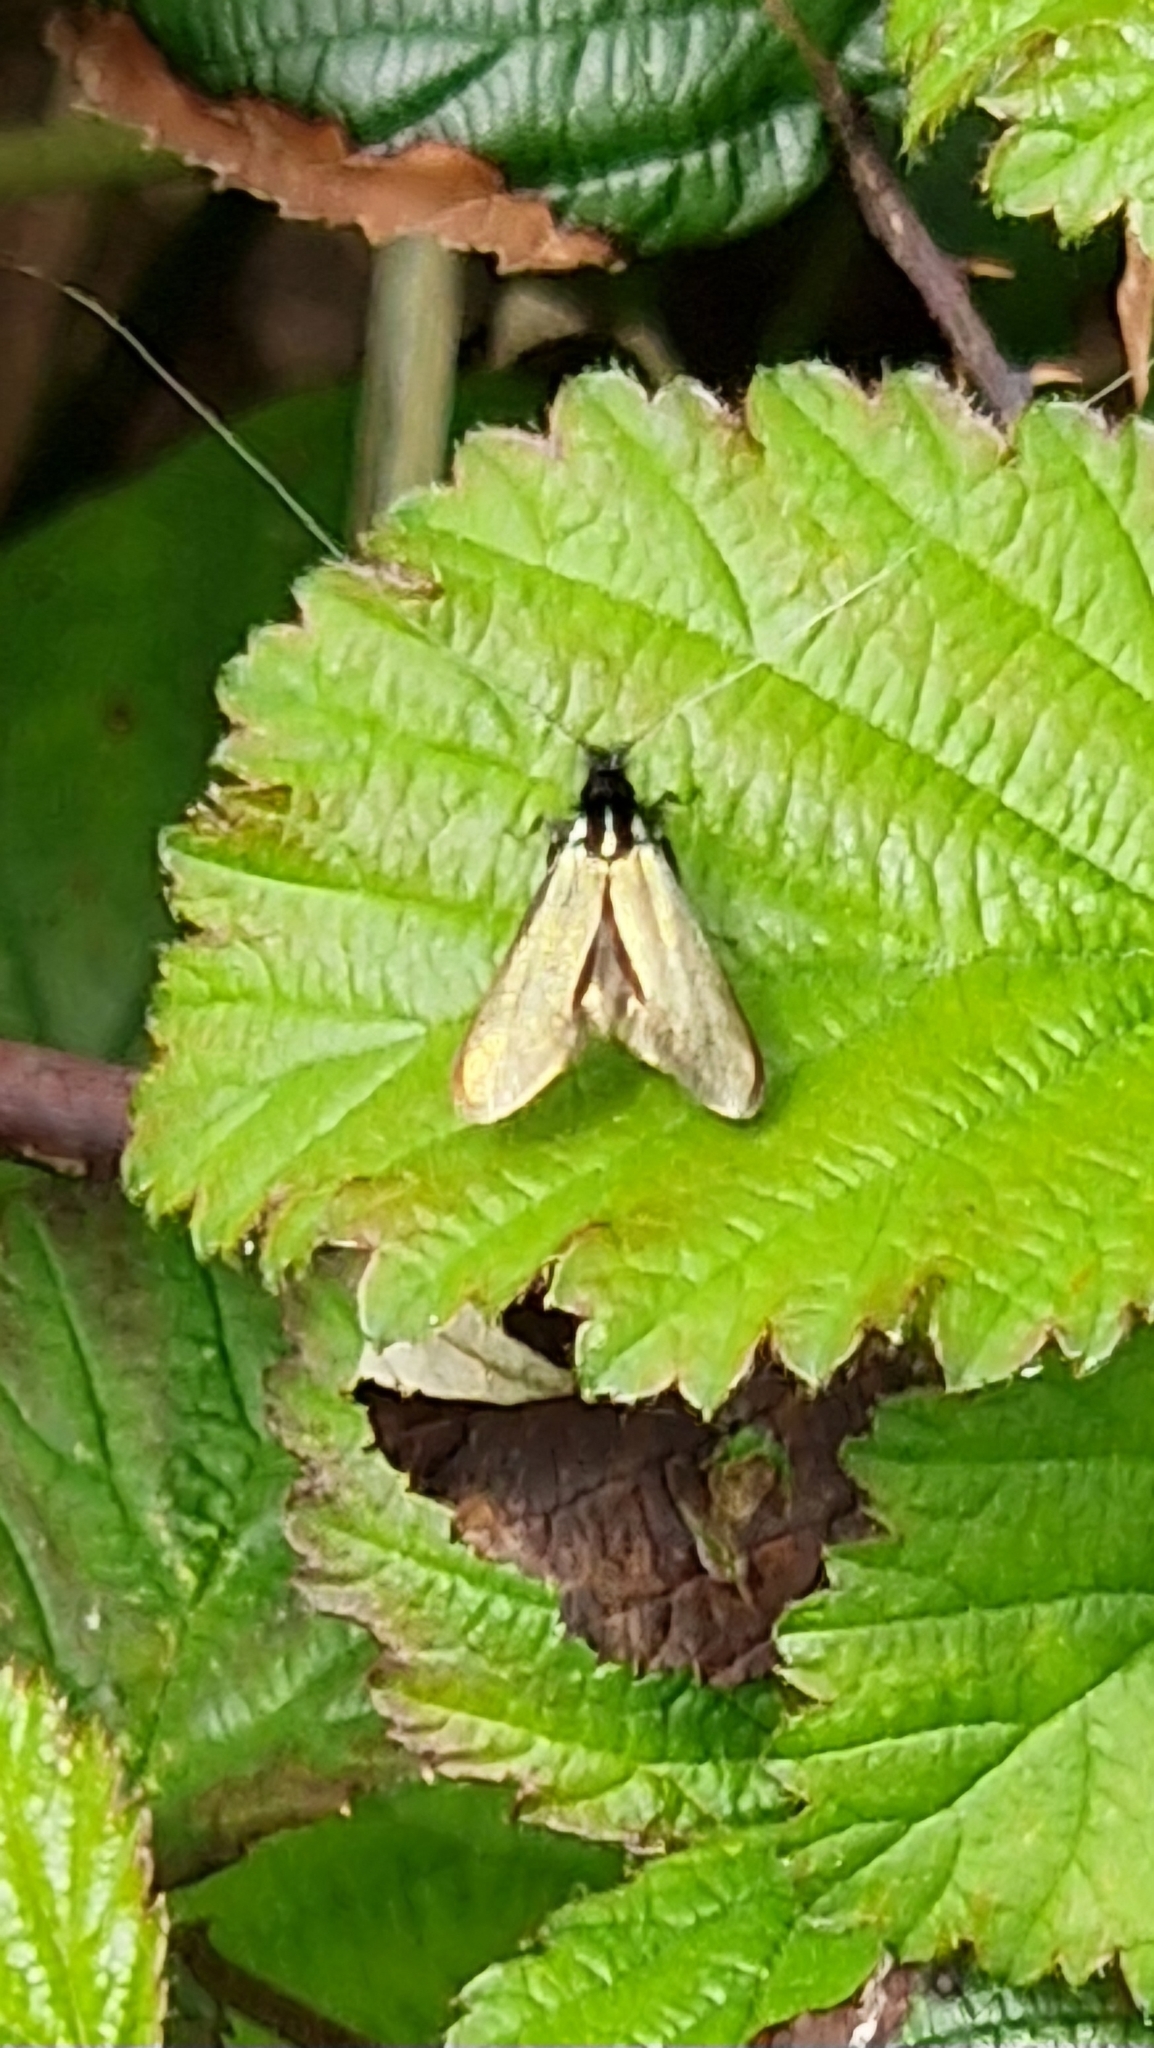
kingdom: Animalia
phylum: Arthropoda
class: Insecta
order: Lepidoptera
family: Adelidae
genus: Adela
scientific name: Adela viridella
